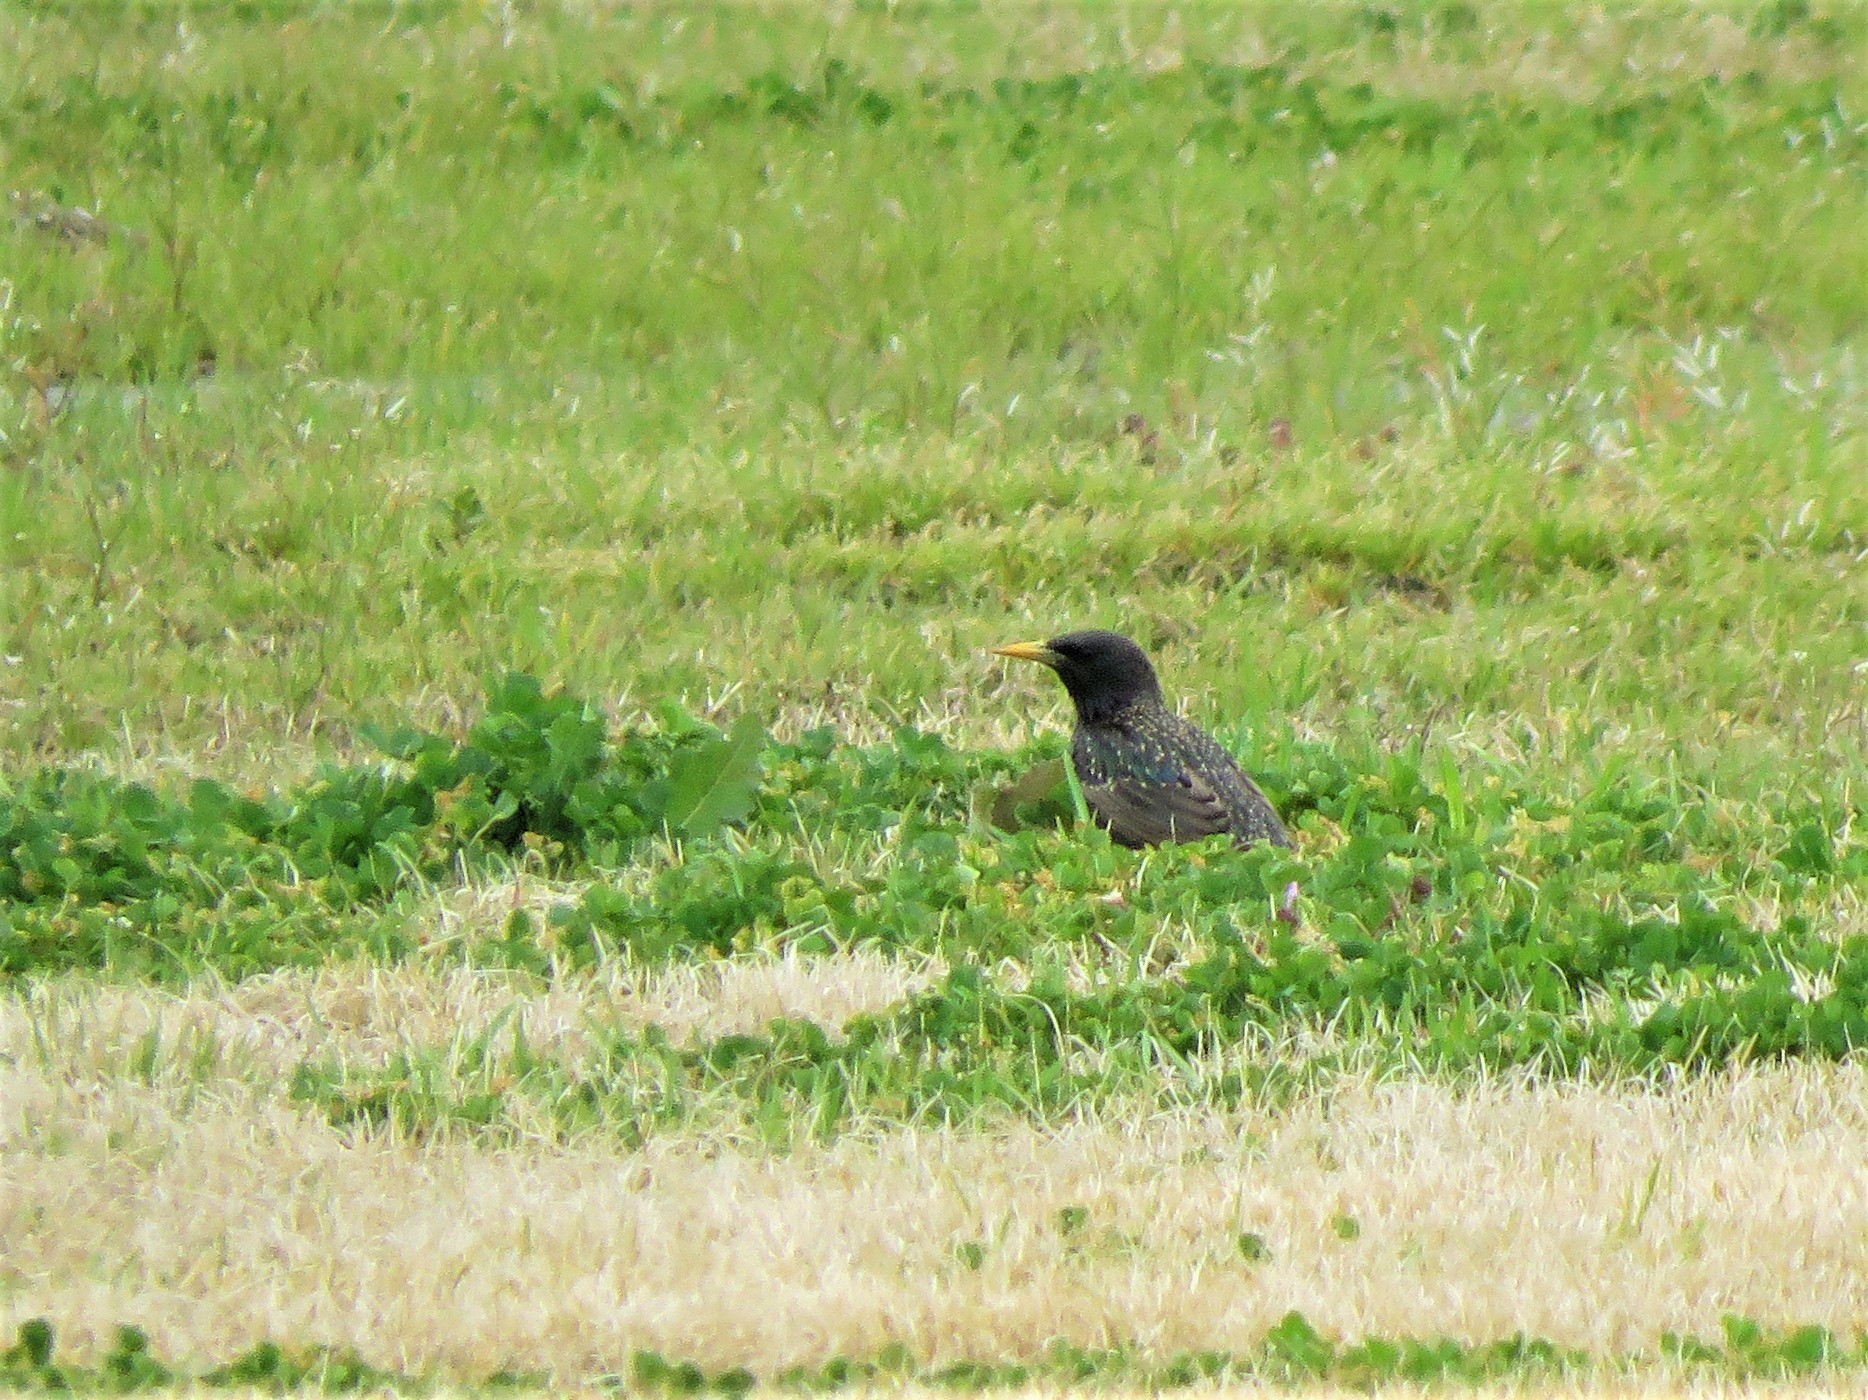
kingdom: Animalia
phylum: Chordata
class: Aves
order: Passeriformes
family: Sturnidae
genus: Sturnus
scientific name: Sturnus vulgaris
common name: Common starling
